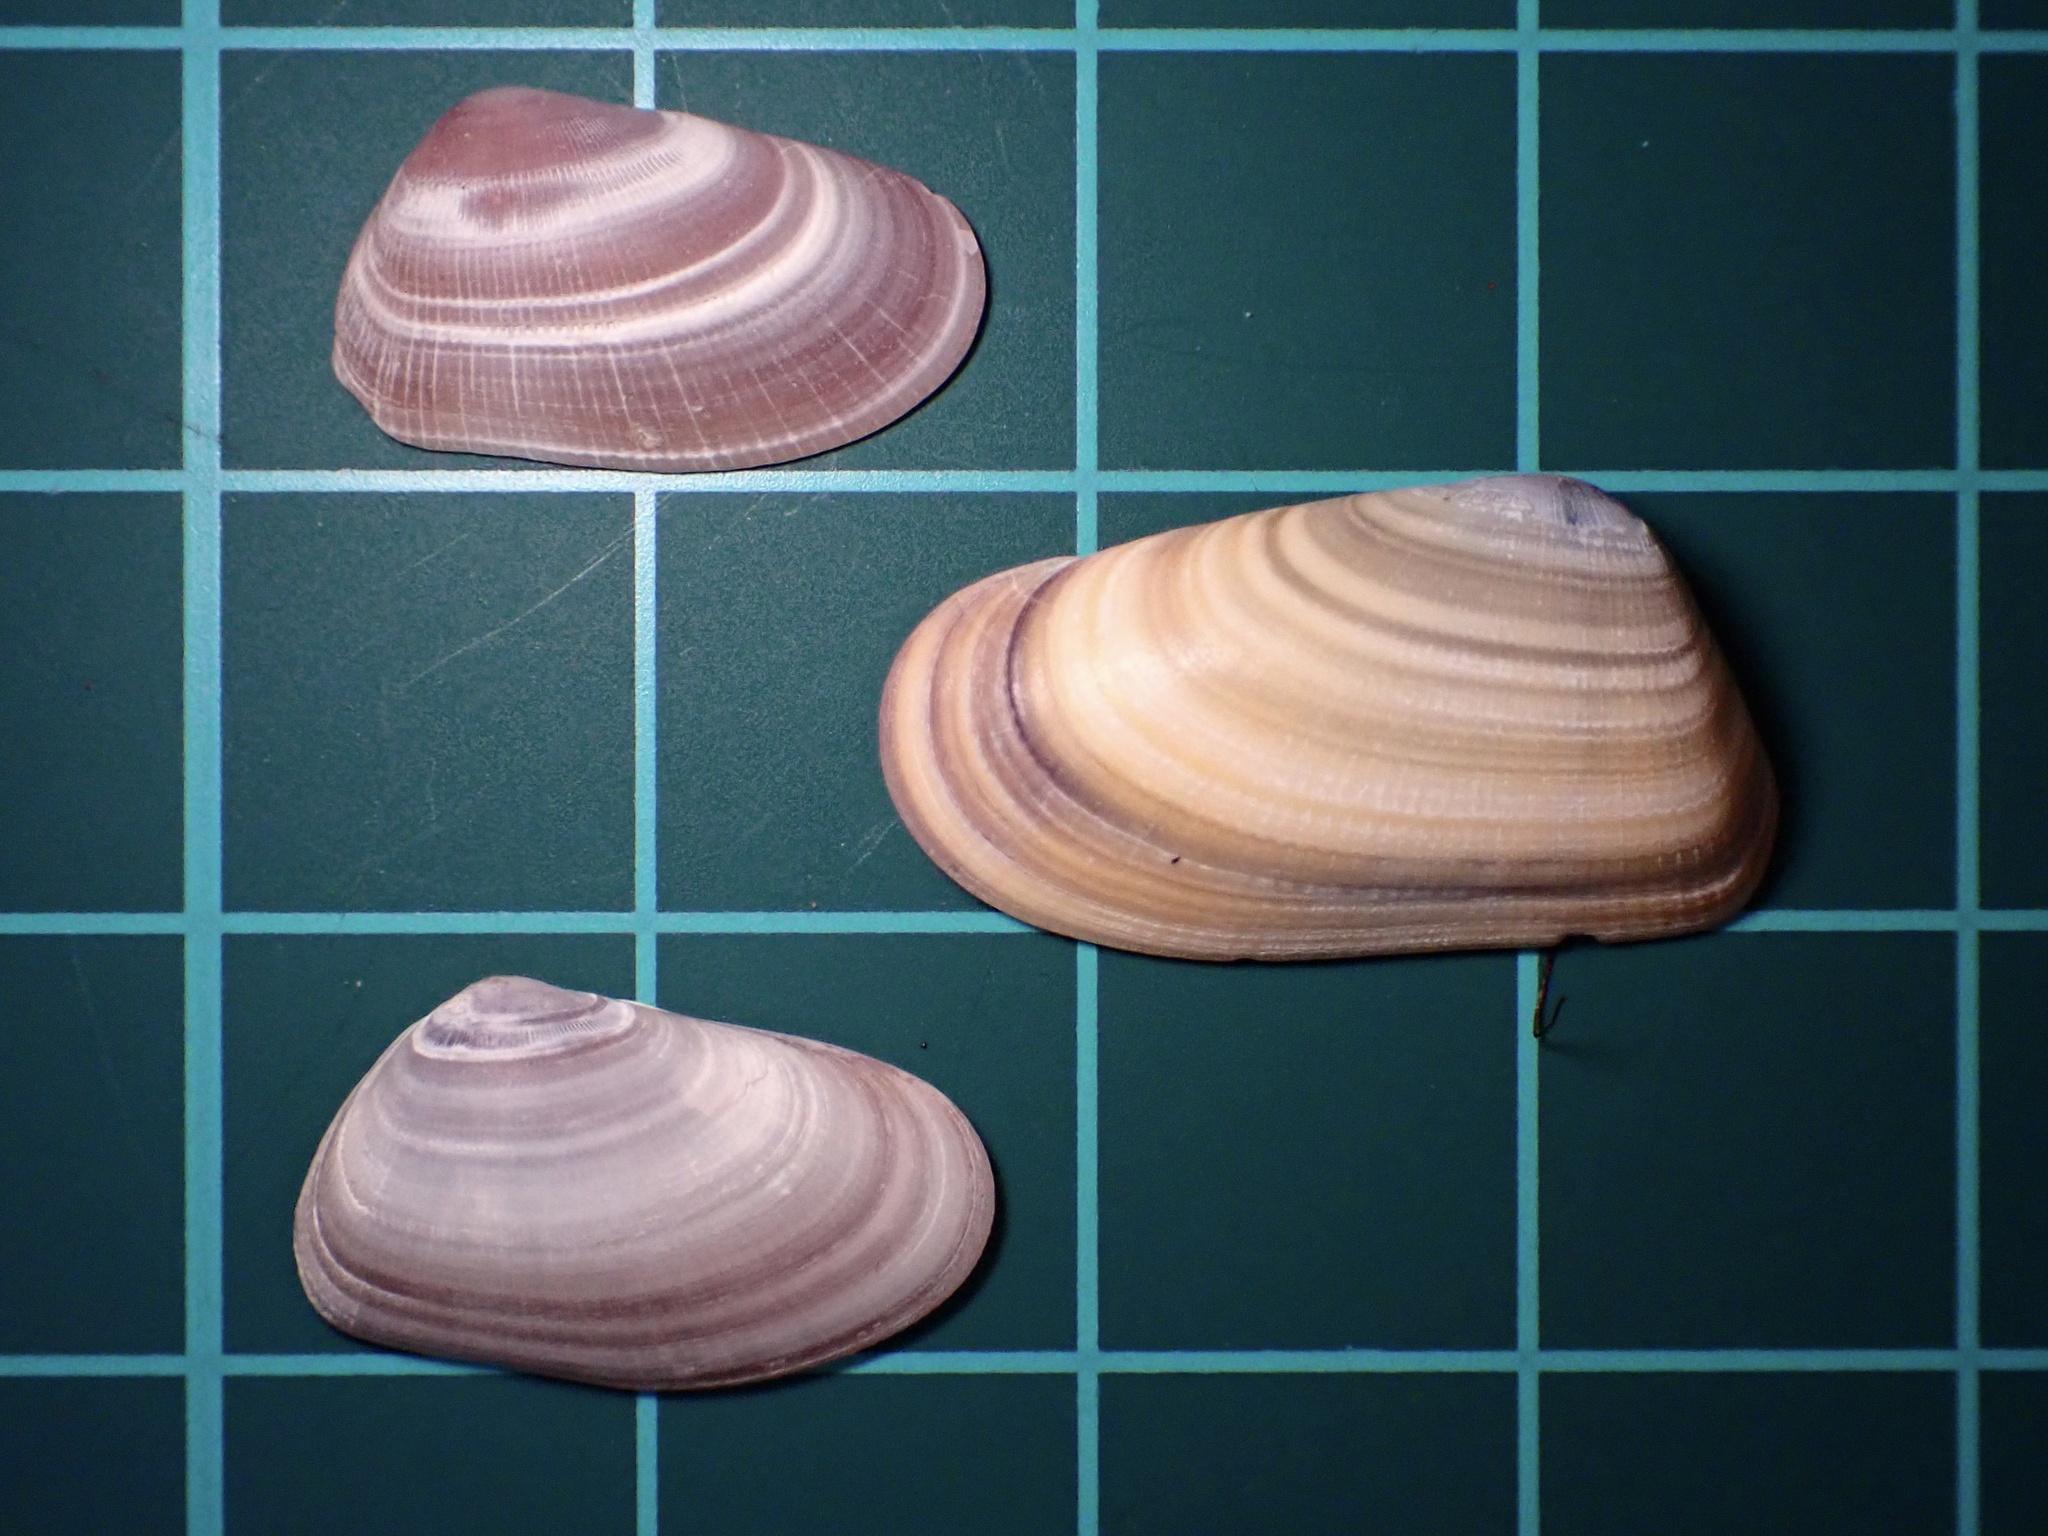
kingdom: Animalia
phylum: Mollusca
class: Bivalvia
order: Cardiida
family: Donacidae
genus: Donax
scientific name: Donax gouldii
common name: Gould beanclam
